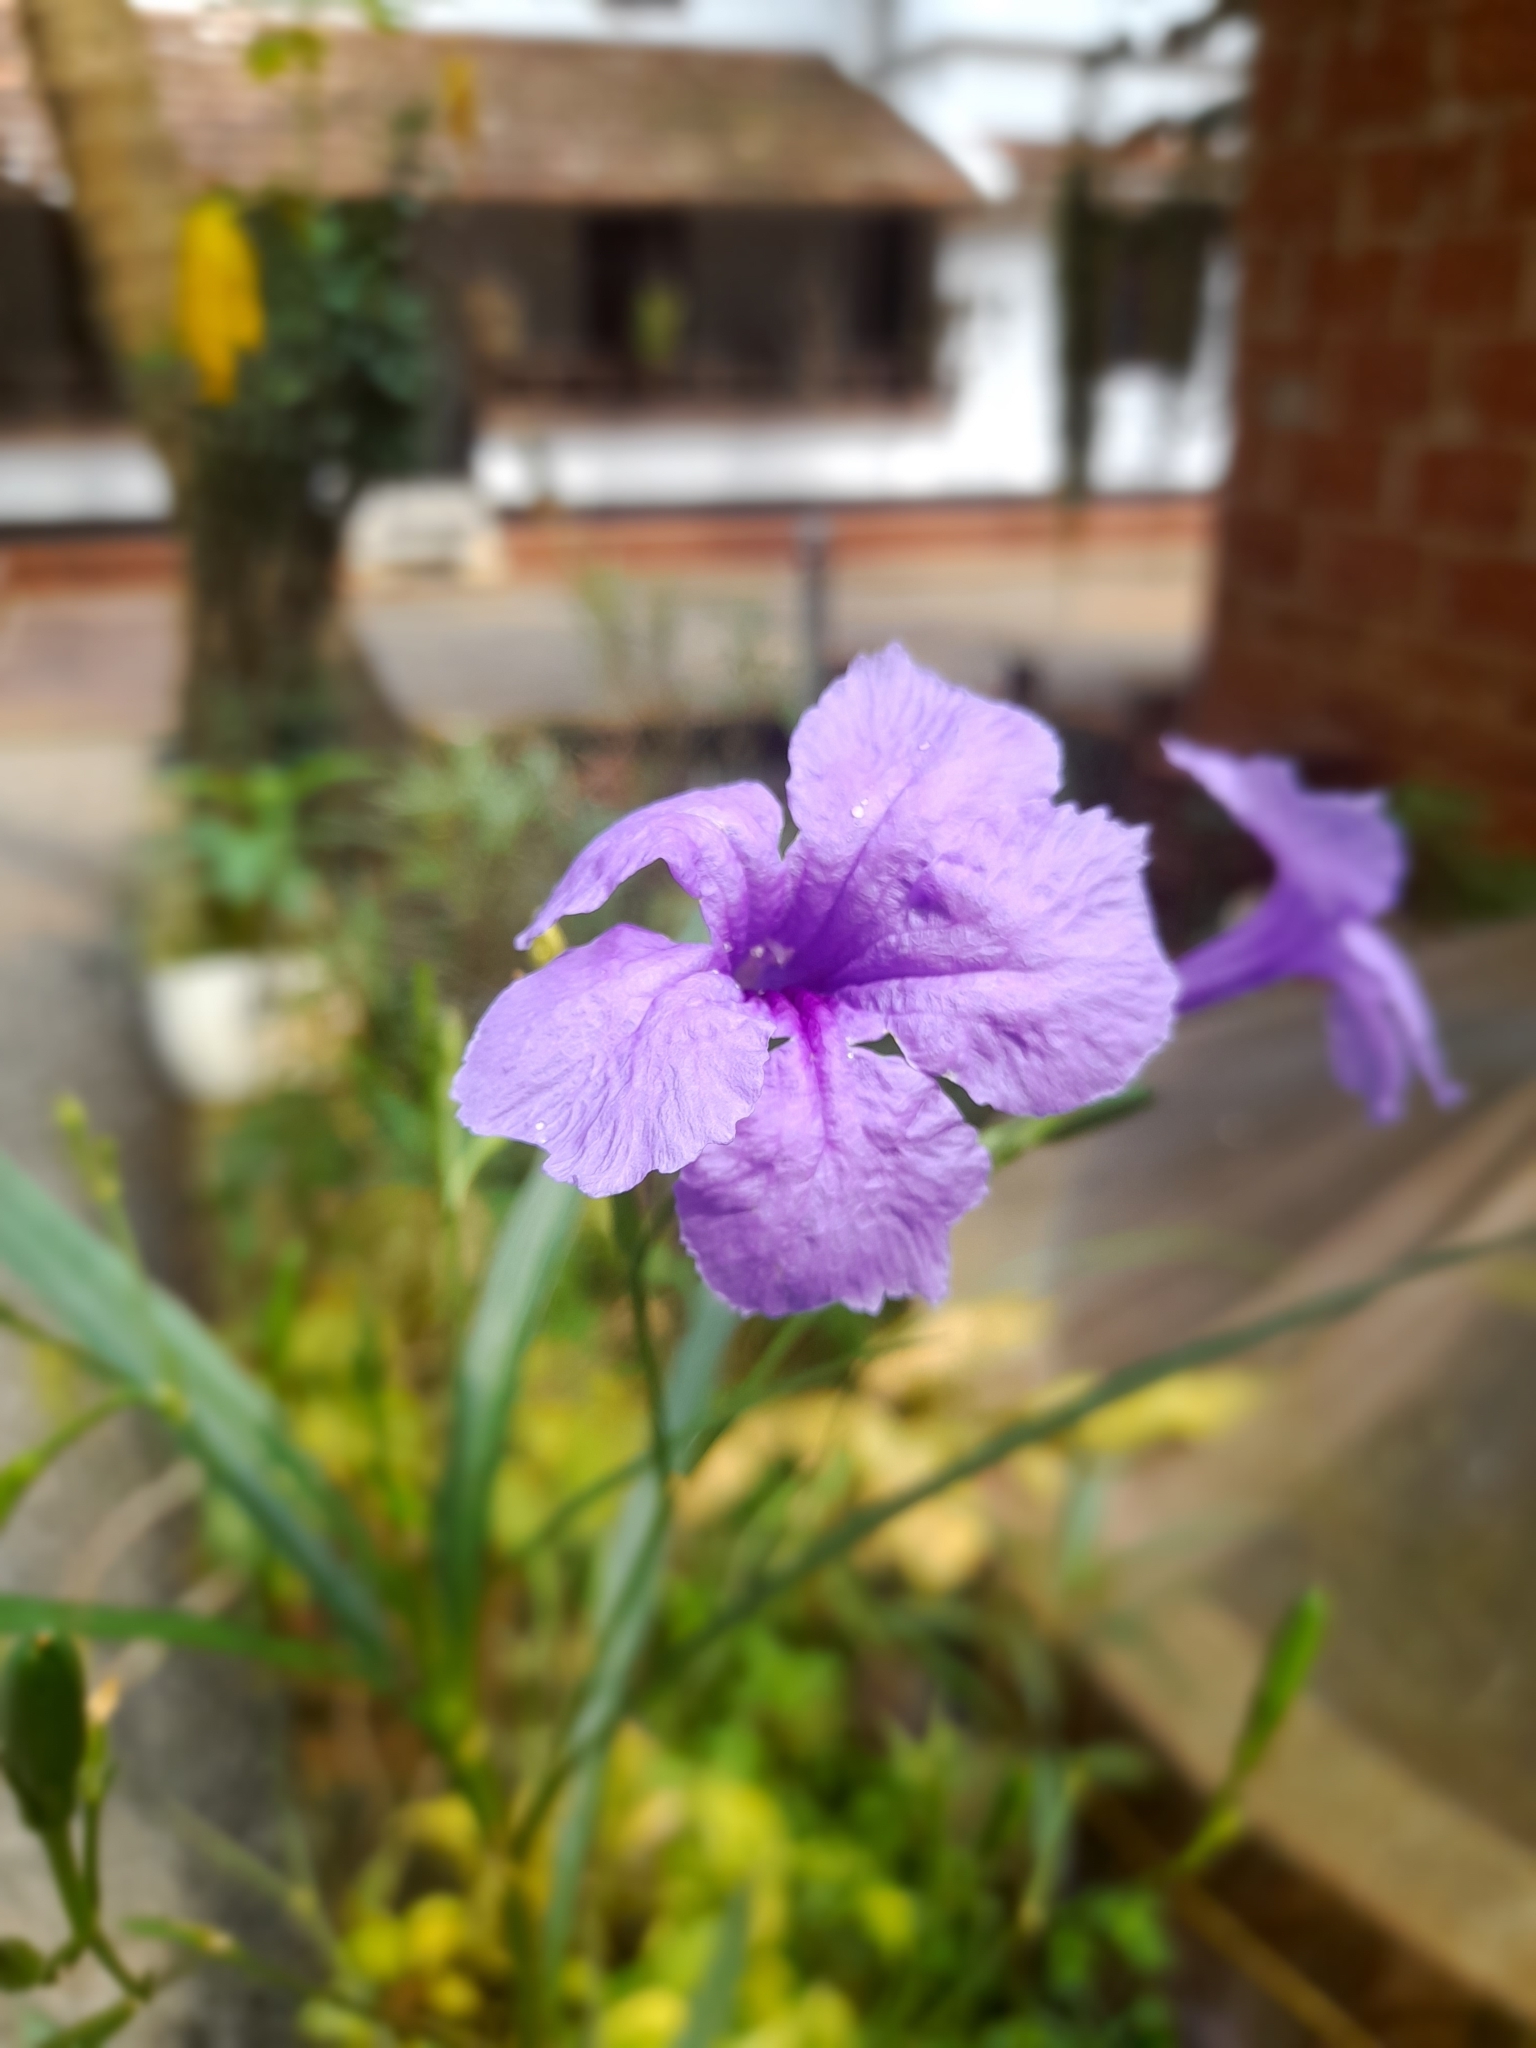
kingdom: Plantae
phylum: Tracheophyta
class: Magnoliopsida
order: Lamiales
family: Acanthaceae
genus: Ruellia
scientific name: Ruellia simplex
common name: Softseed wild petunia
